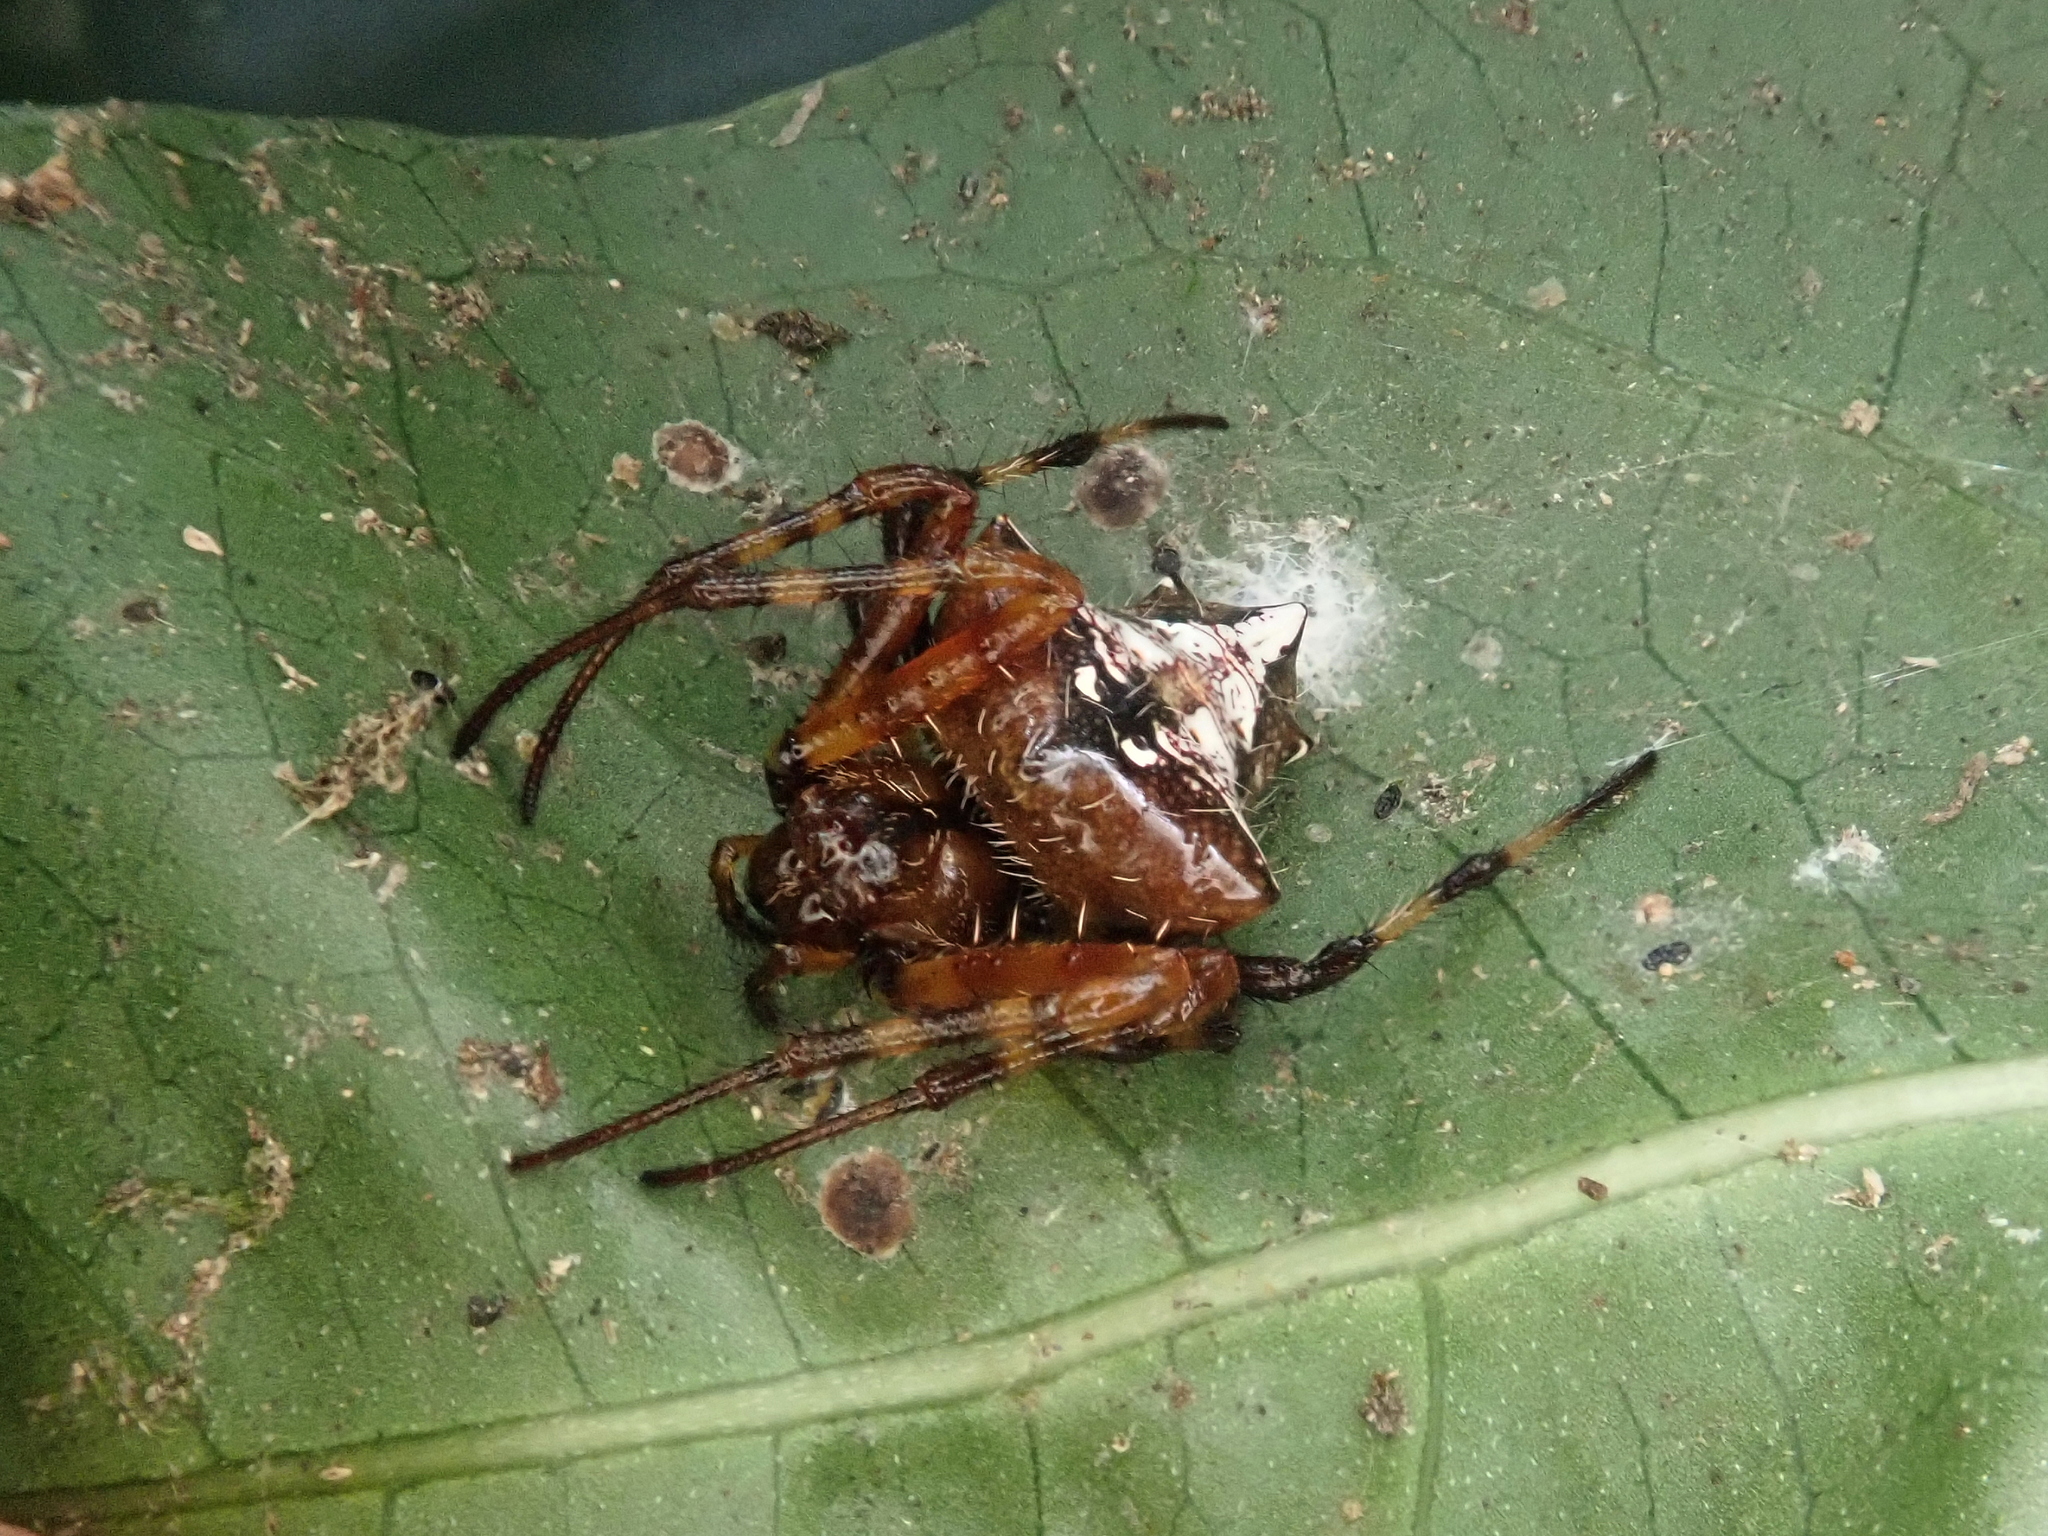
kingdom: Animalia
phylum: Arthropoda
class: Arachnida
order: Araneae
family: Araneidae
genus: Verrucosa
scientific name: Verrucosa scapofracta
